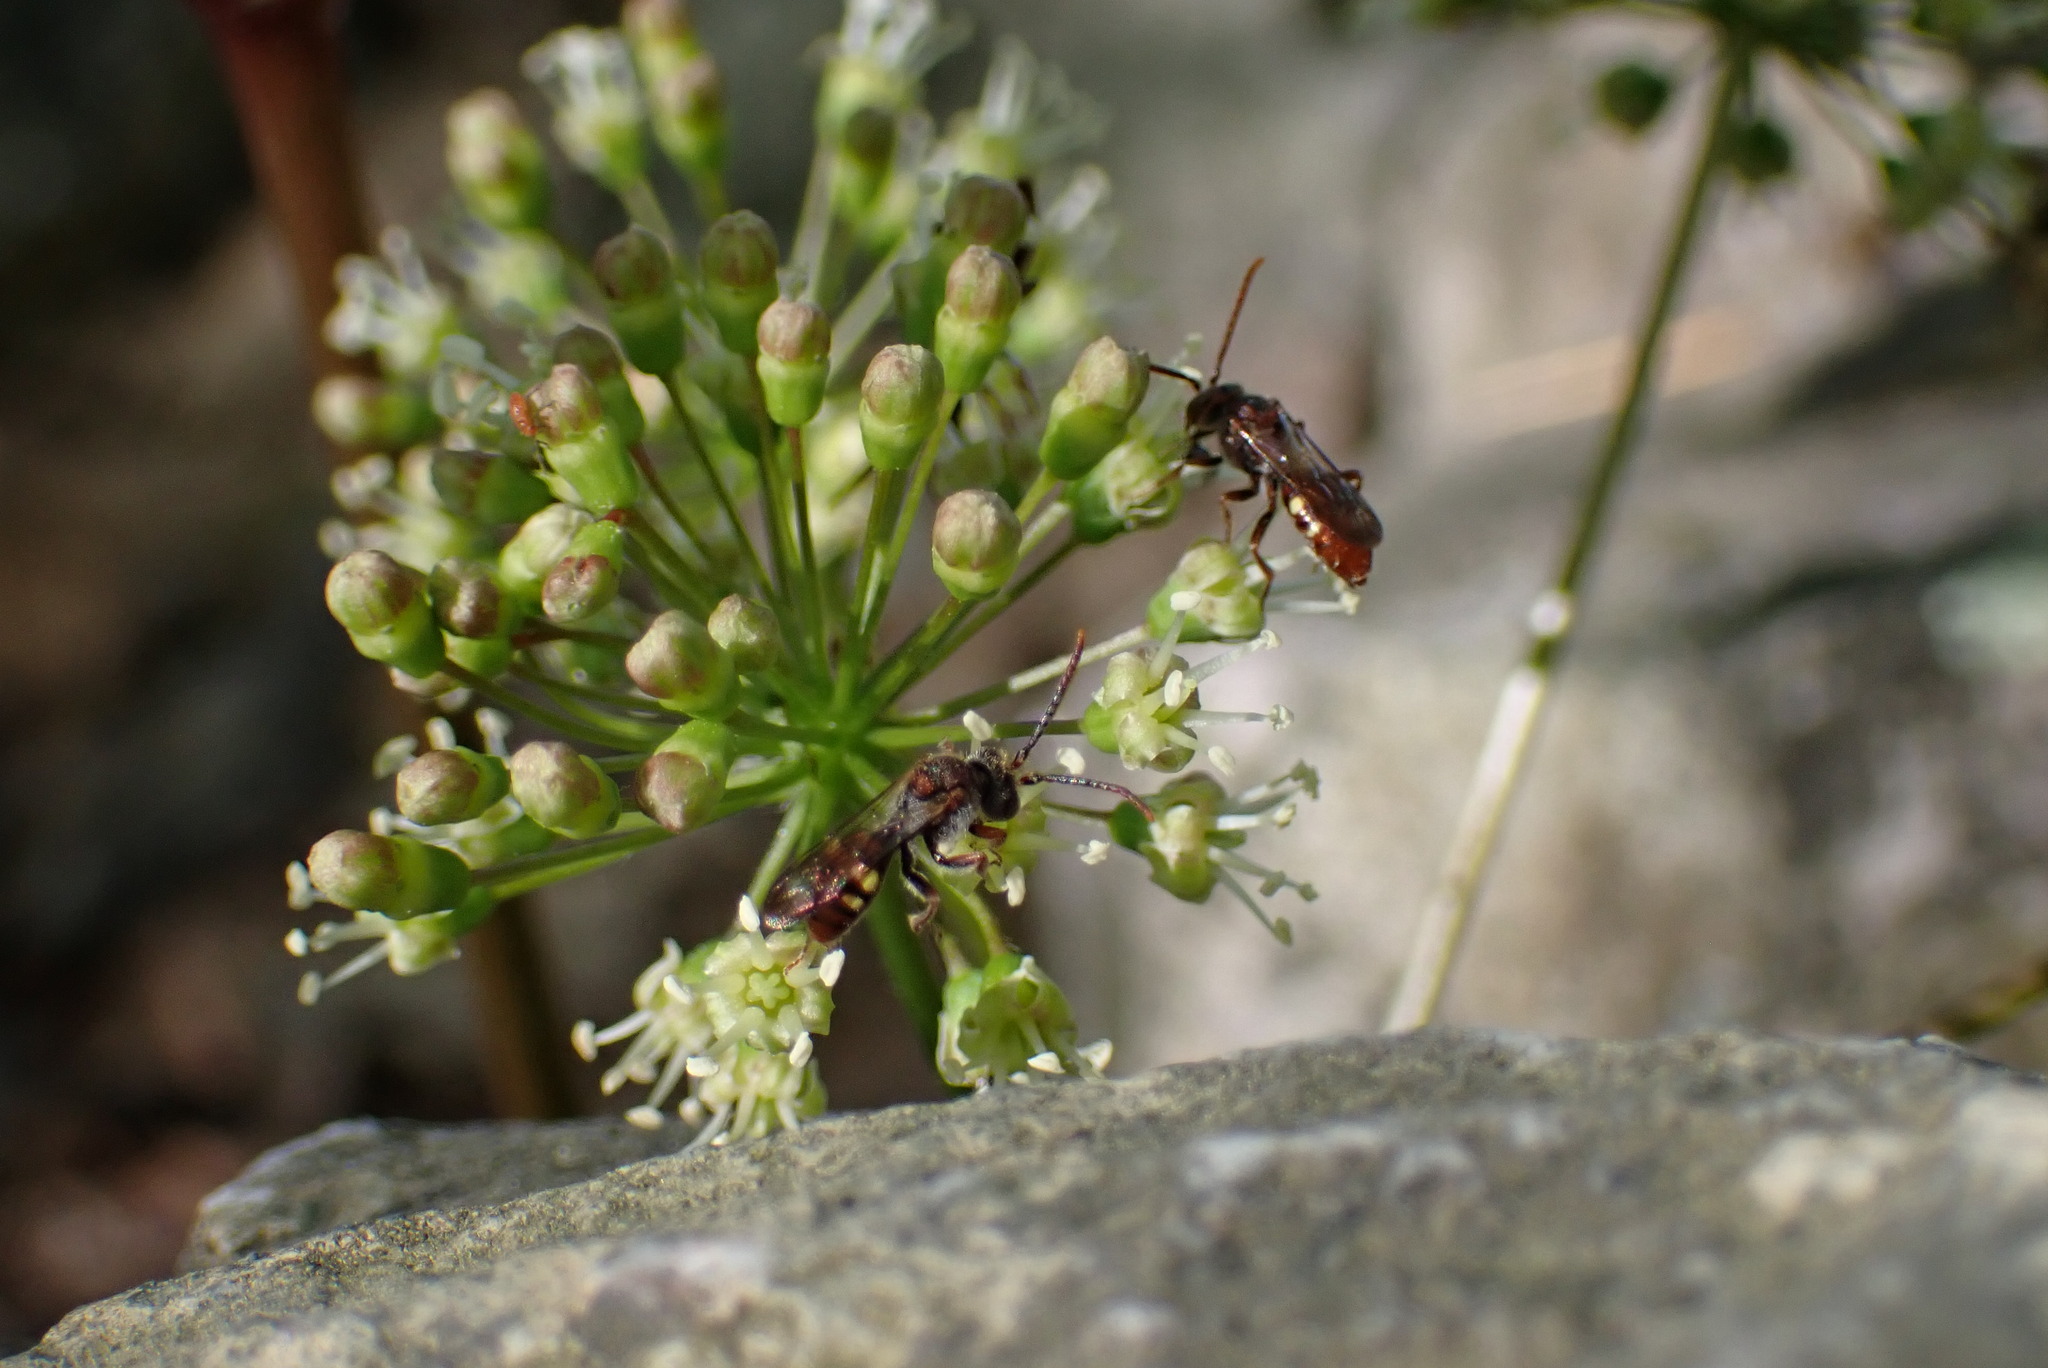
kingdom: Plantae
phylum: Tracheophyta
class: Magnoliopsida
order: Apiales
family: Araliaceae
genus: Aralia
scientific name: Aralia nudicaulis
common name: Wild sarsaparilla
